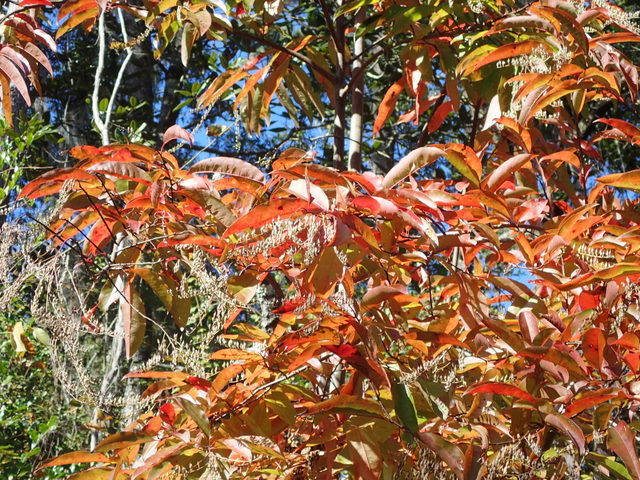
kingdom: Plantae
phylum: Tracheophyta
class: Magnoliopsida
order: Ericales
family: Ericaceae
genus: Oxydendrum
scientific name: Oxydendrum arboreum
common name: Sourwood
